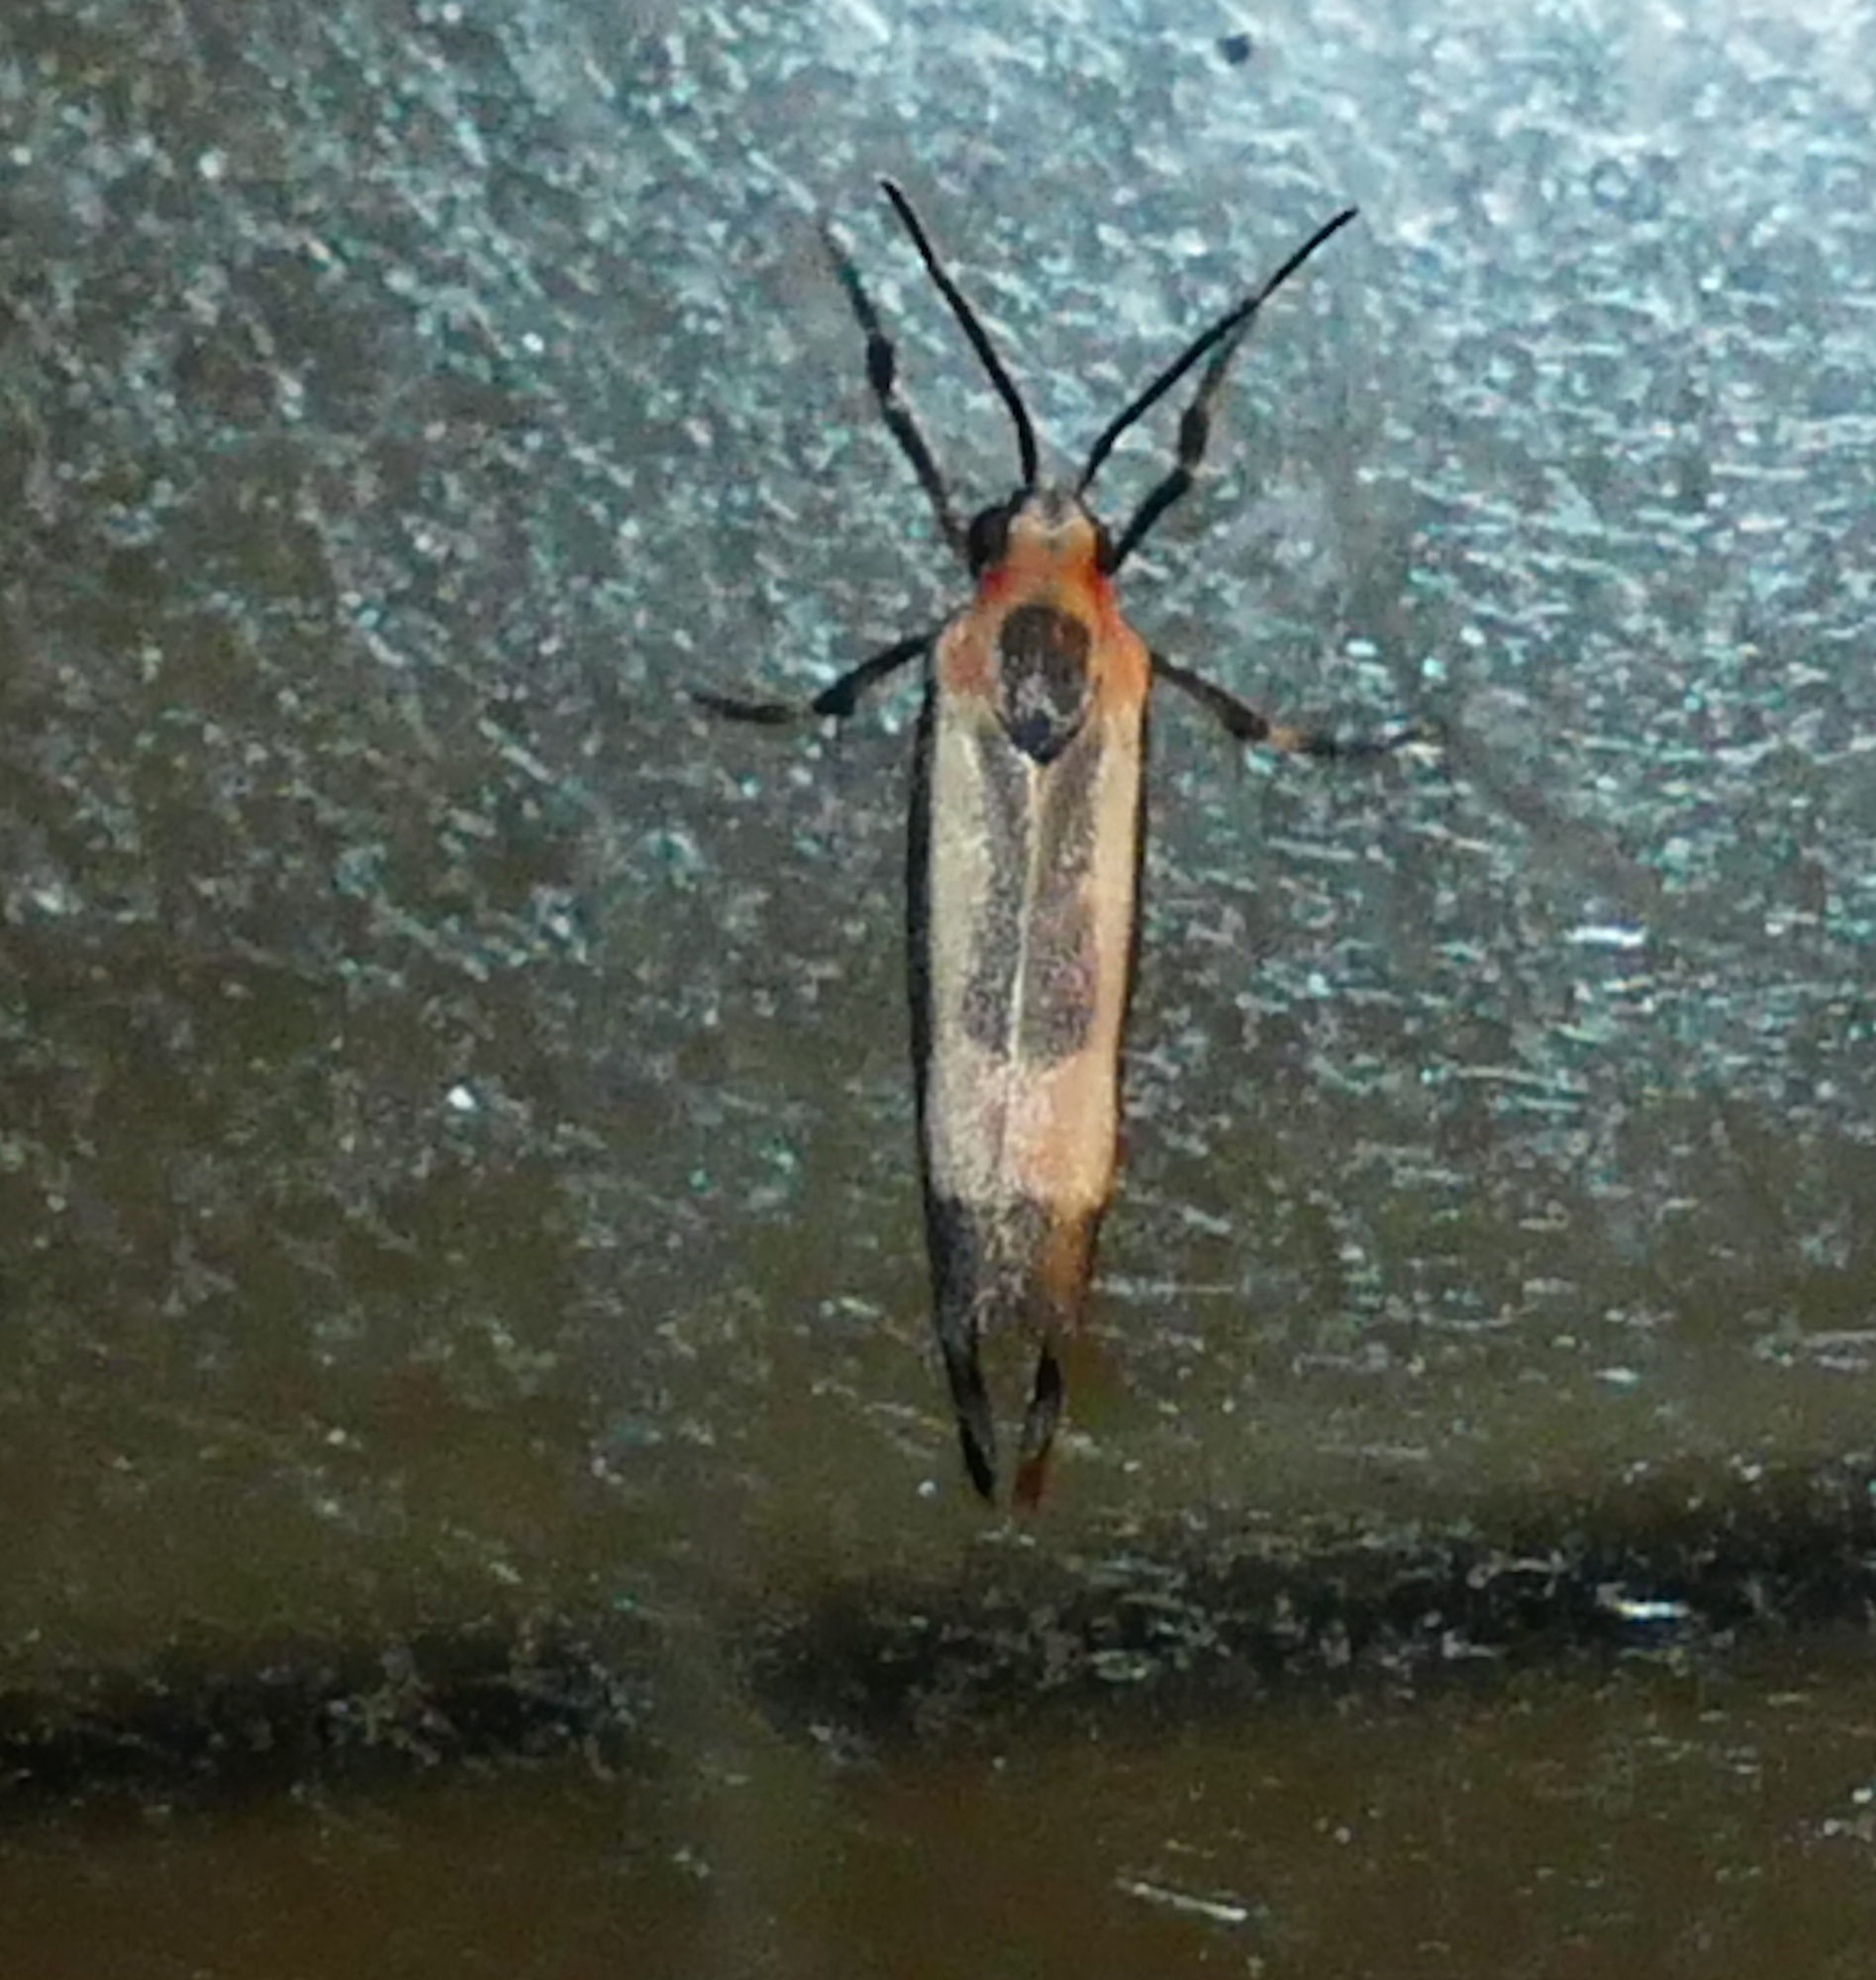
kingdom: Animalia
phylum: Arthropoda
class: Insecta
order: Lepidoptera
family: Erebidae
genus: Cisthene
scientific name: Cisthene packardii
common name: Packard's lichen moth
